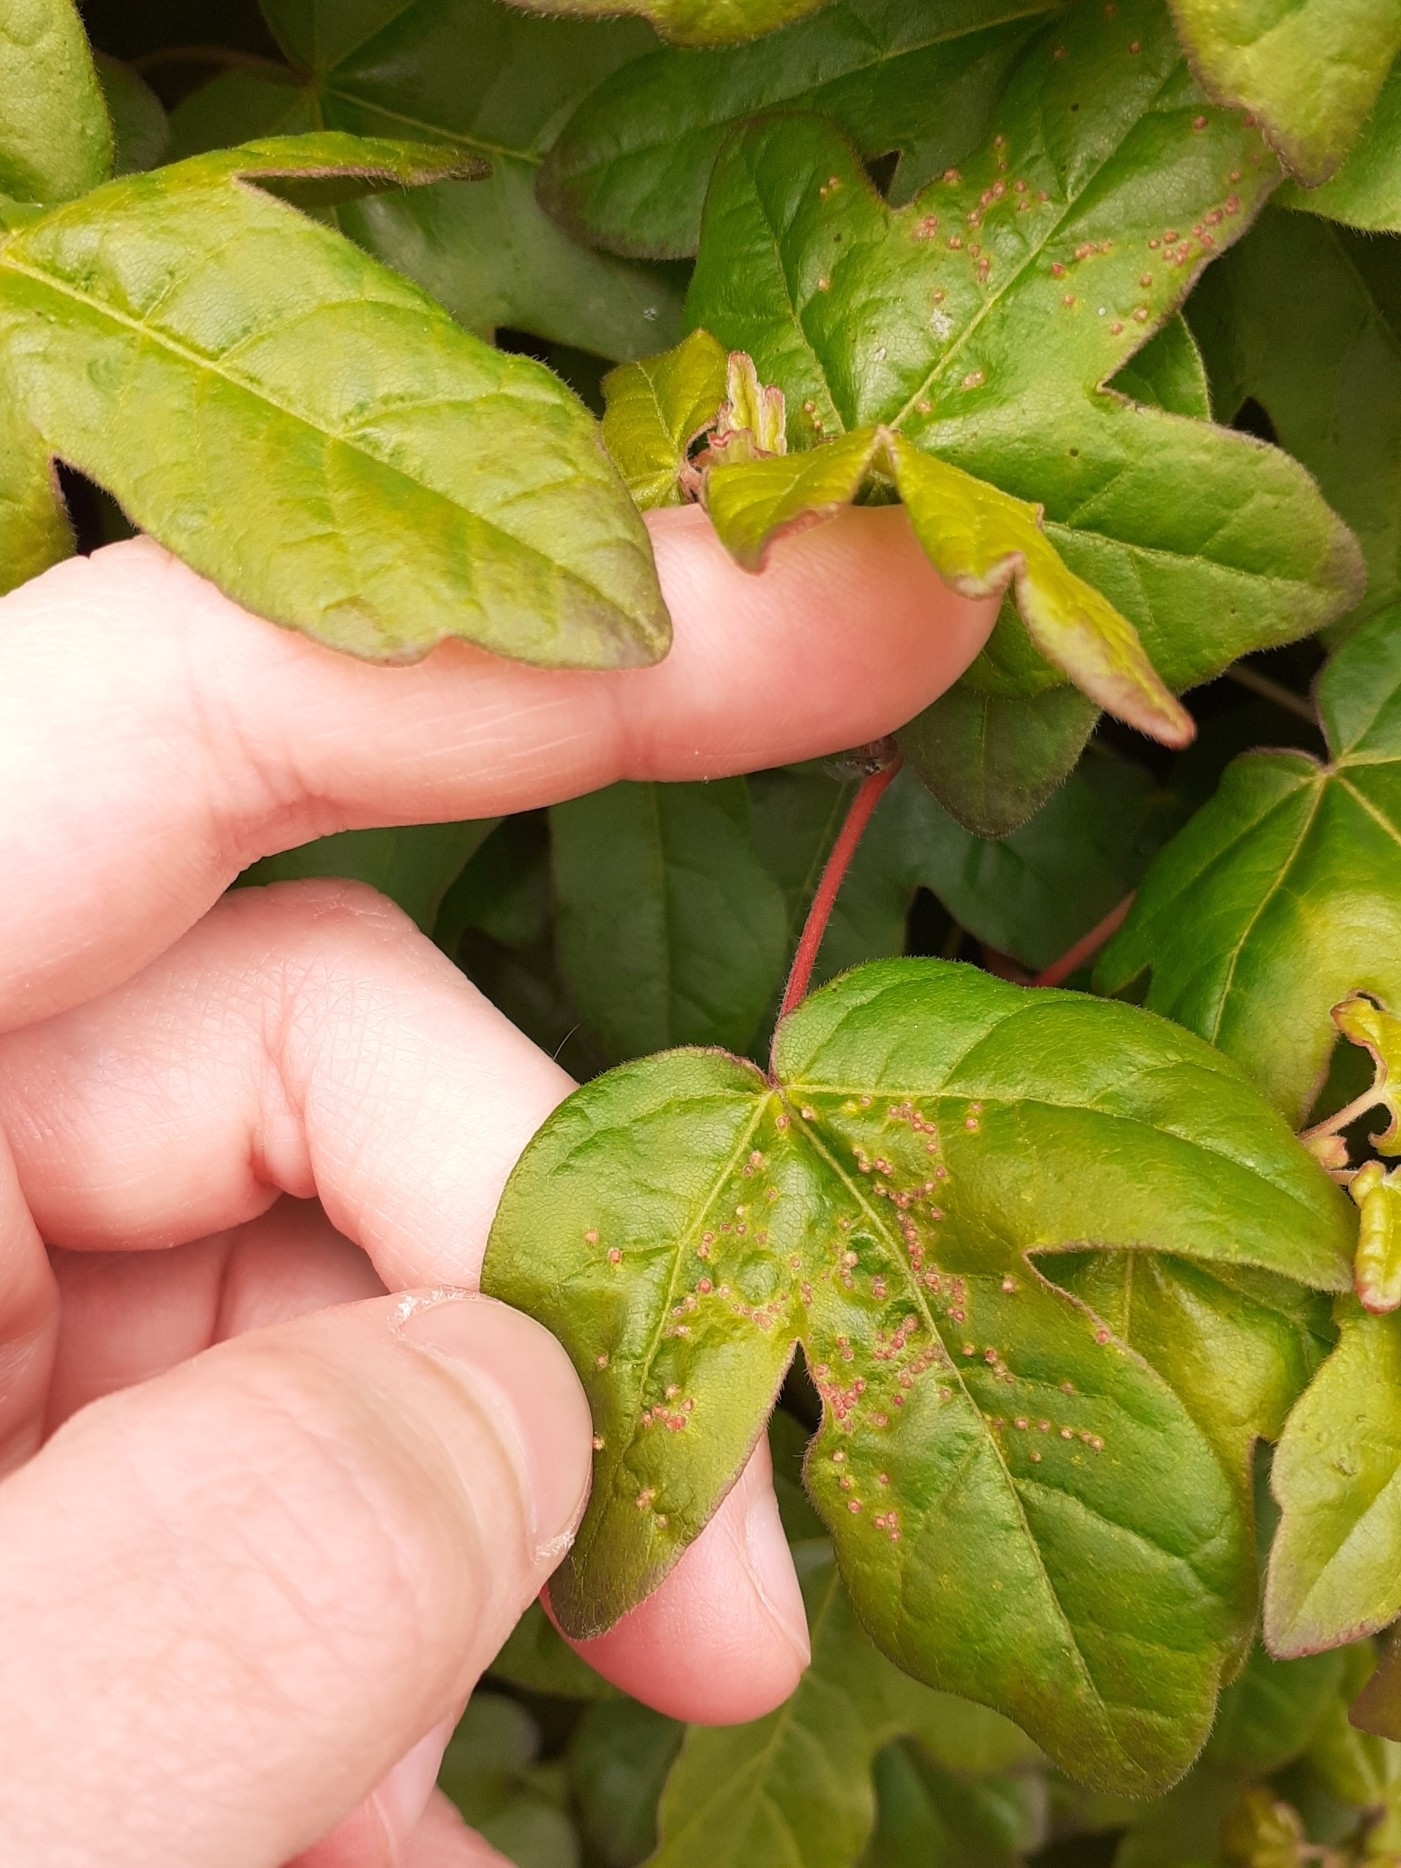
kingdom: Animalia
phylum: Arthropoda
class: Arachnida
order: Trombidiformes
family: Eriophyidae
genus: Aceria
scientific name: Aceria myriadeum
